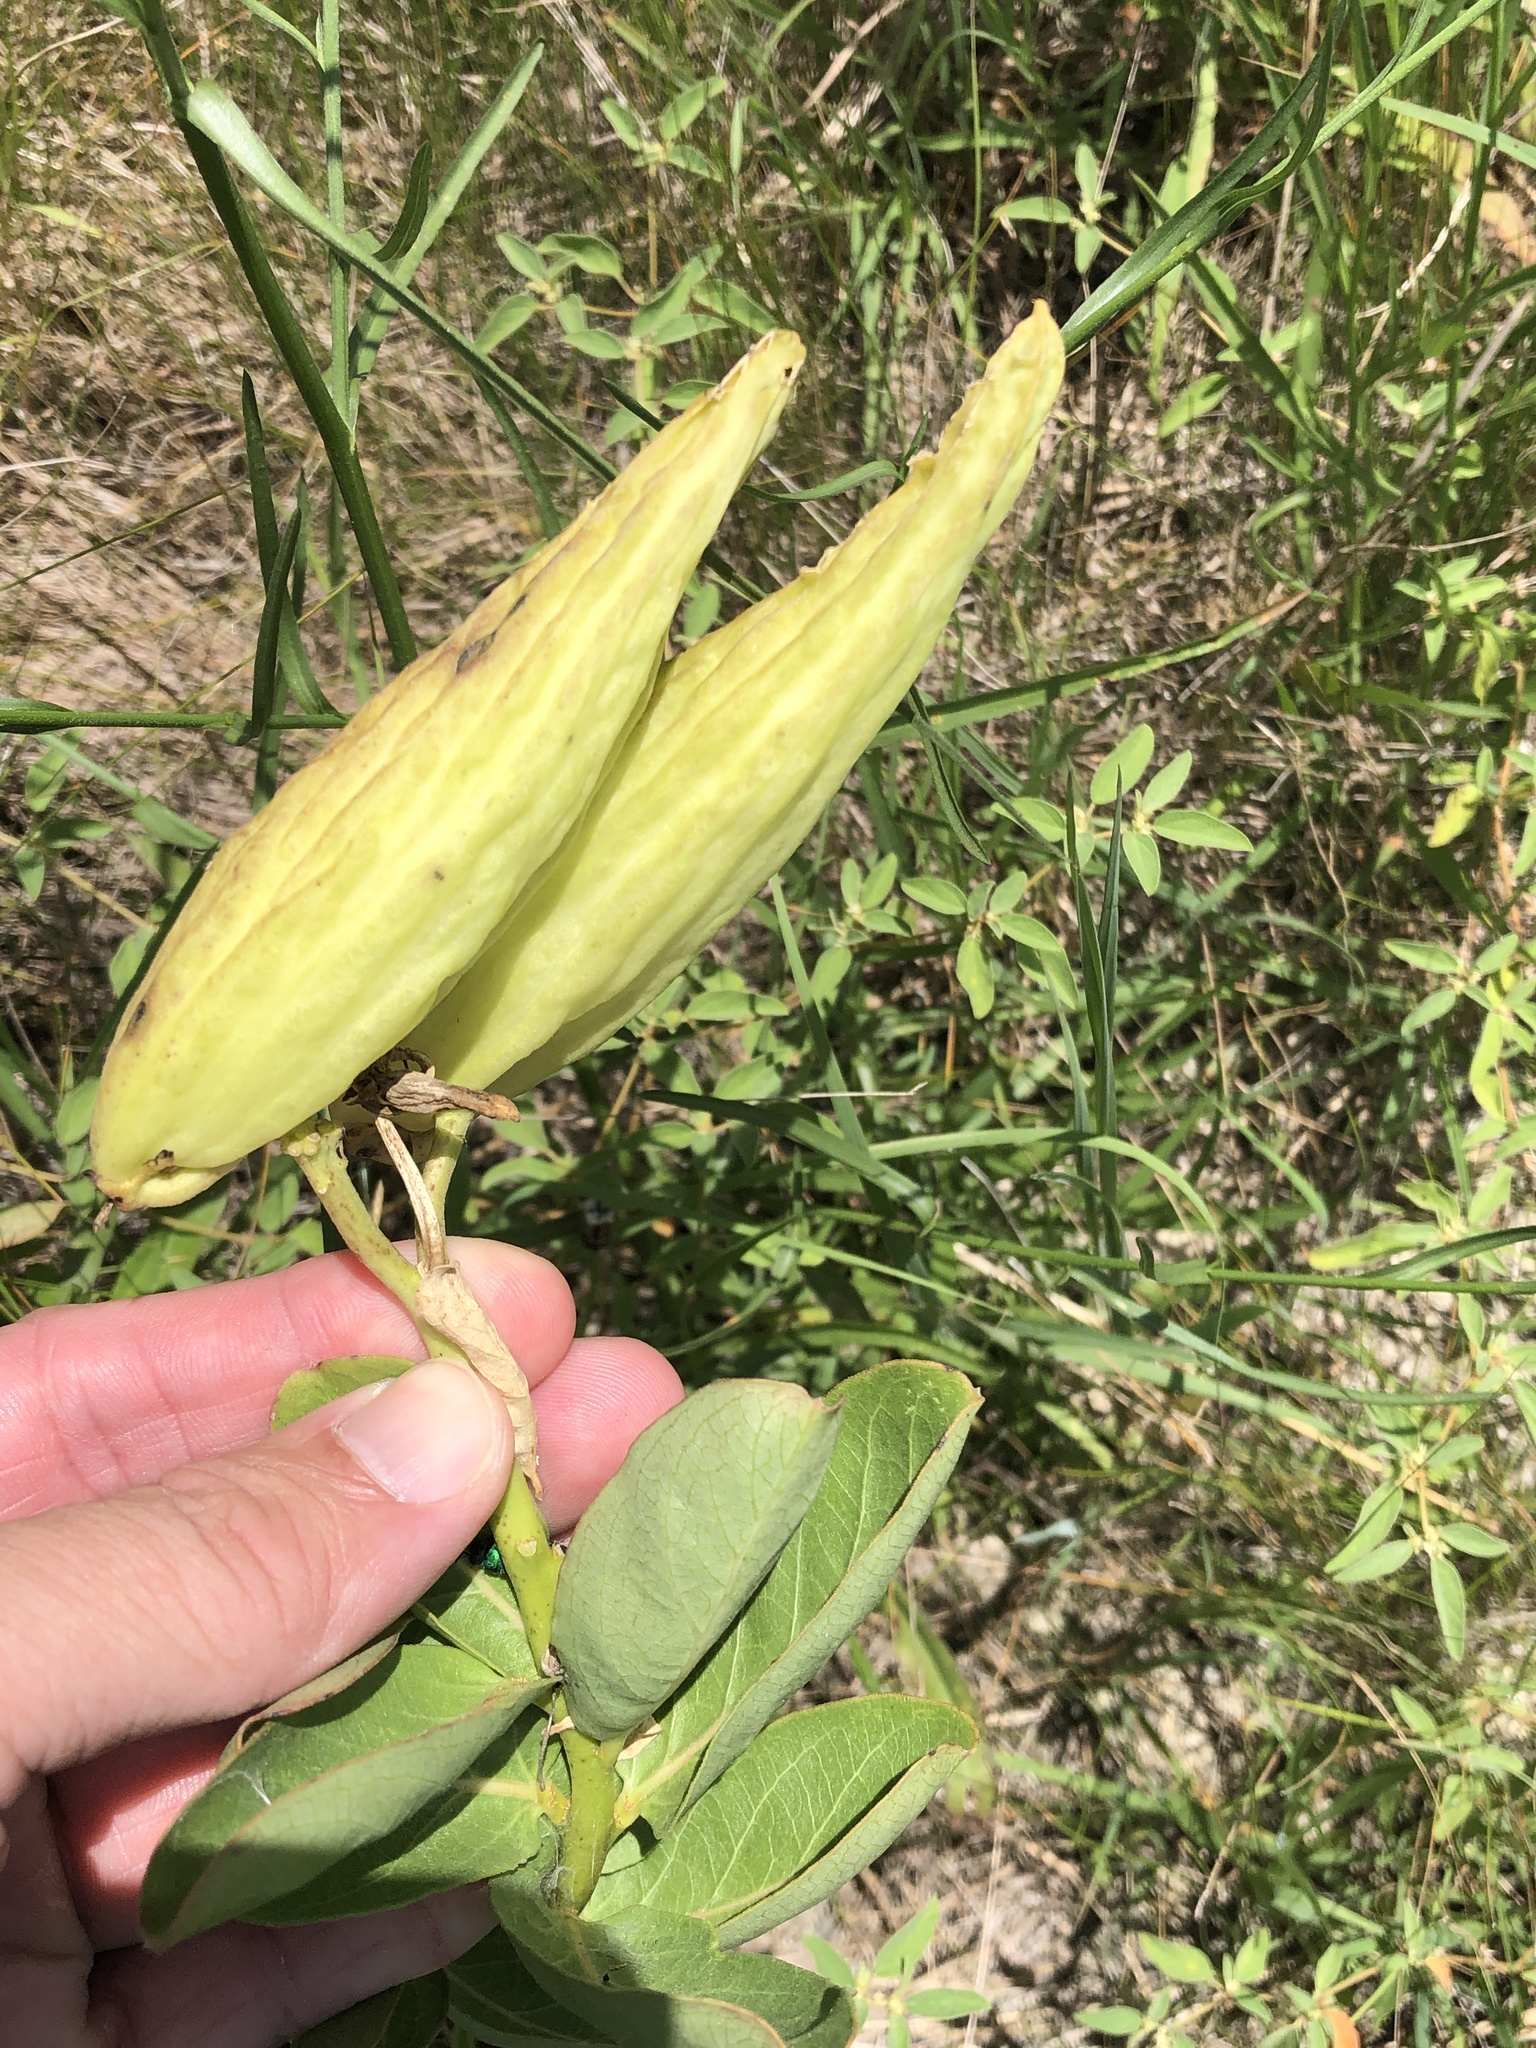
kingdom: Plantae
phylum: Tracheophyta
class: Magnoliopsida
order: Gentianales
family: Apocynaceae
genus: Asclepias
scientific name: Asclepias viridis
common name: Antelope-horns
